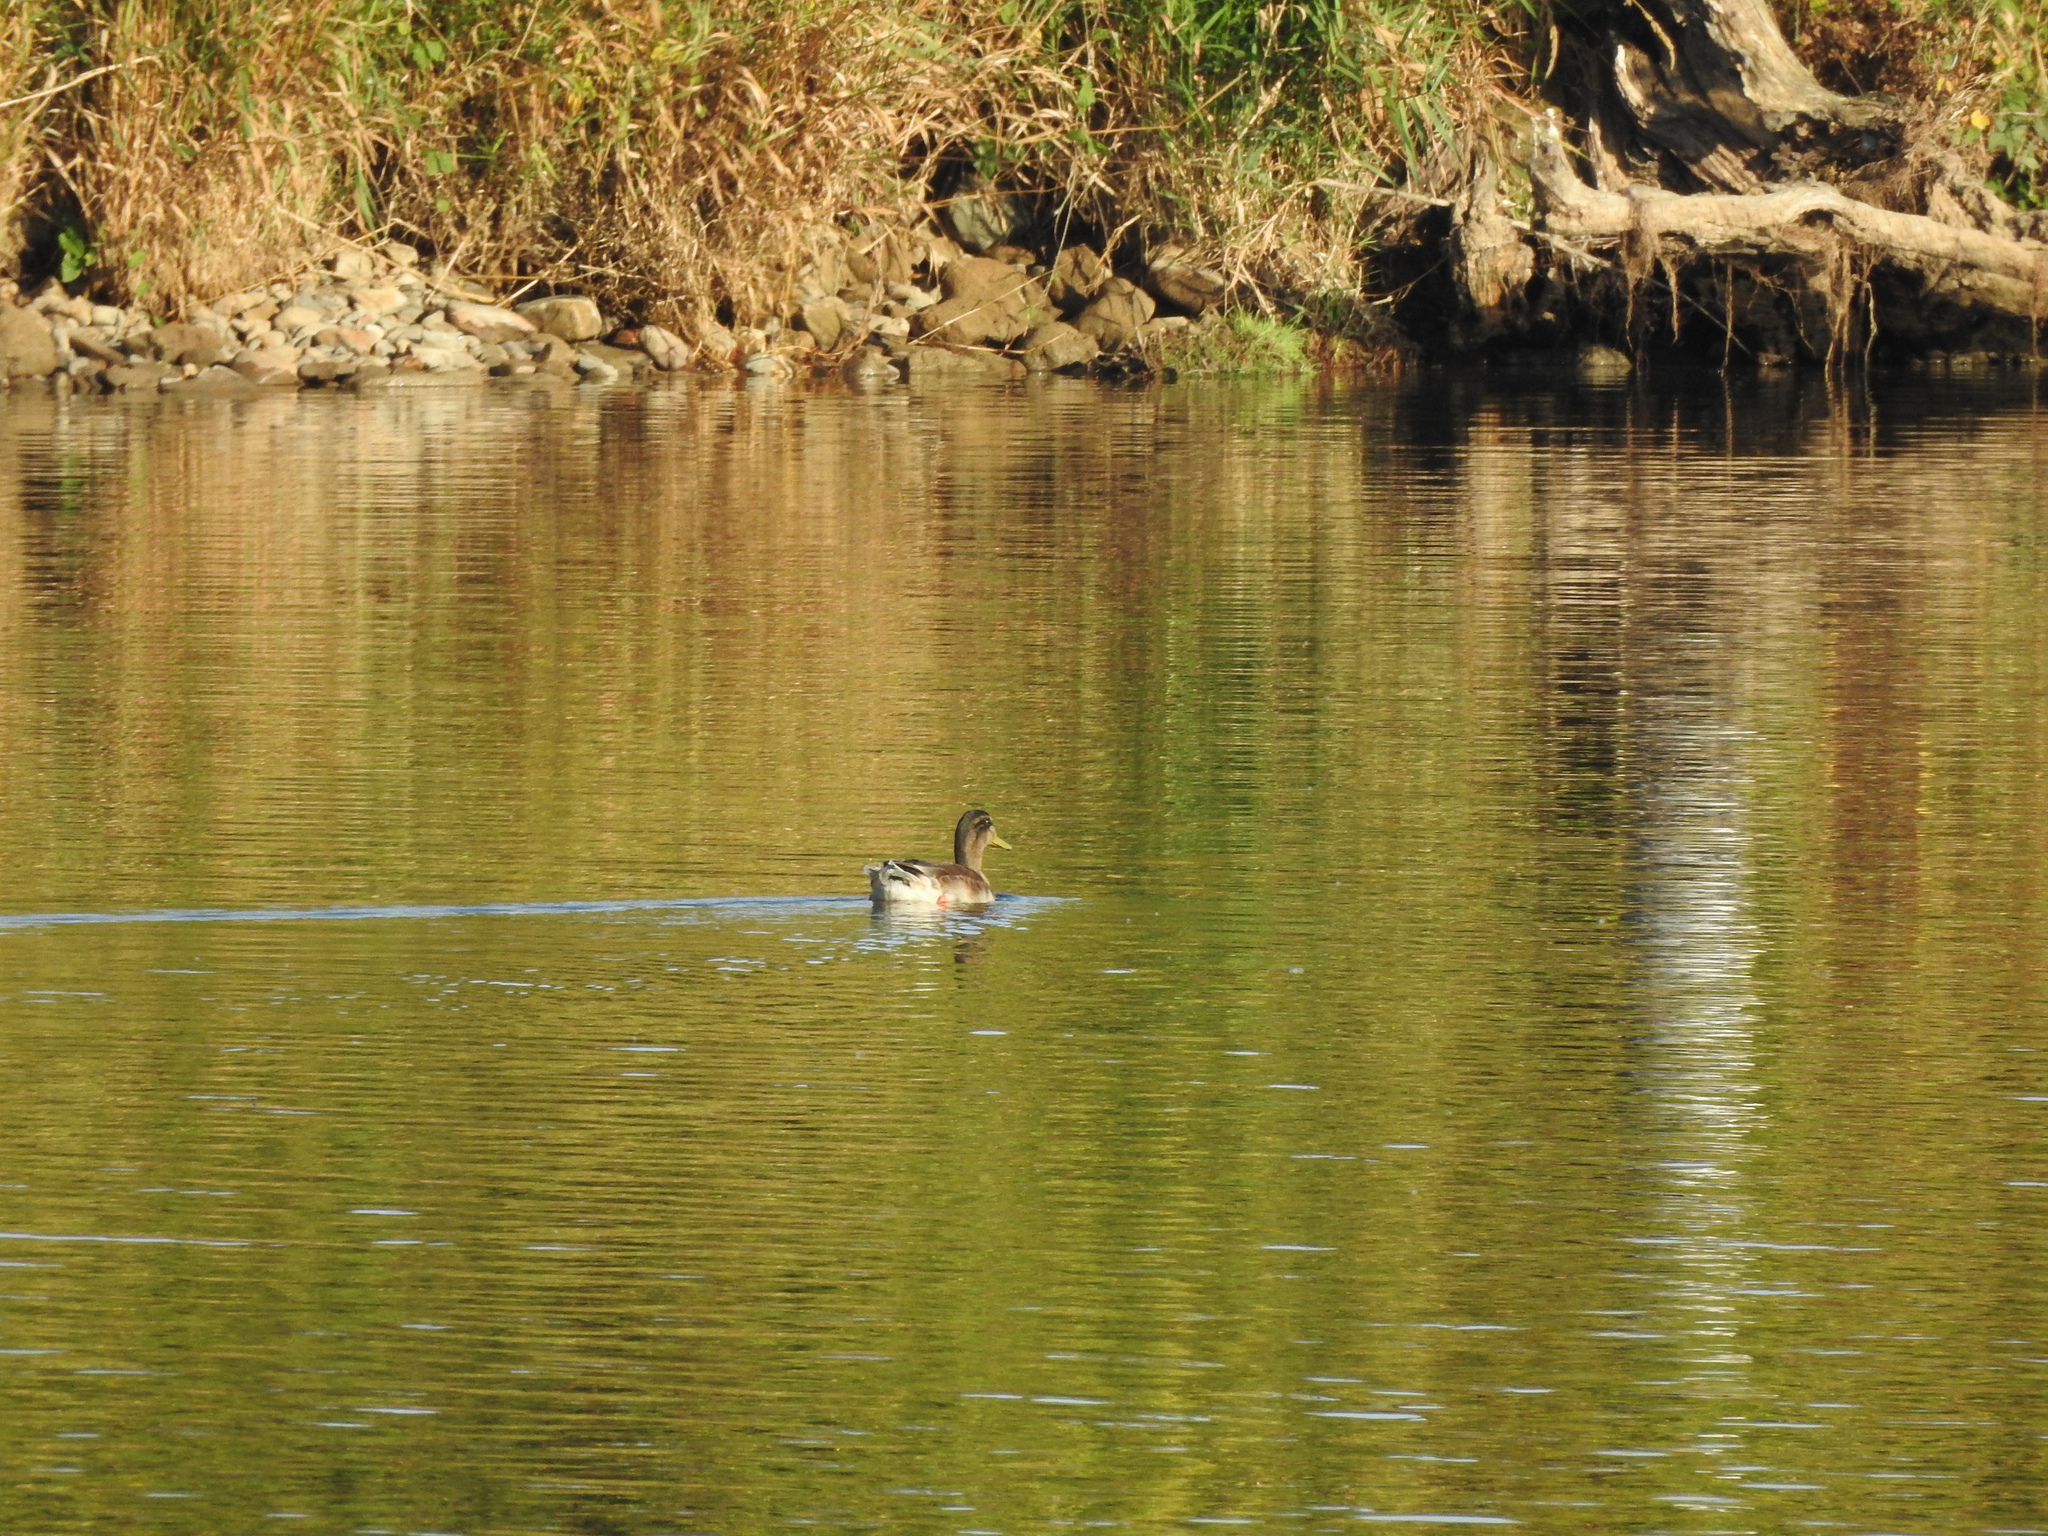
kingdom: Animalia
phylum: Chordata
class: Aves
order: Anseriformes
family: Anatidae
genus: Anas
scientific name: Anas platyrhynchos
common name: Mallard
